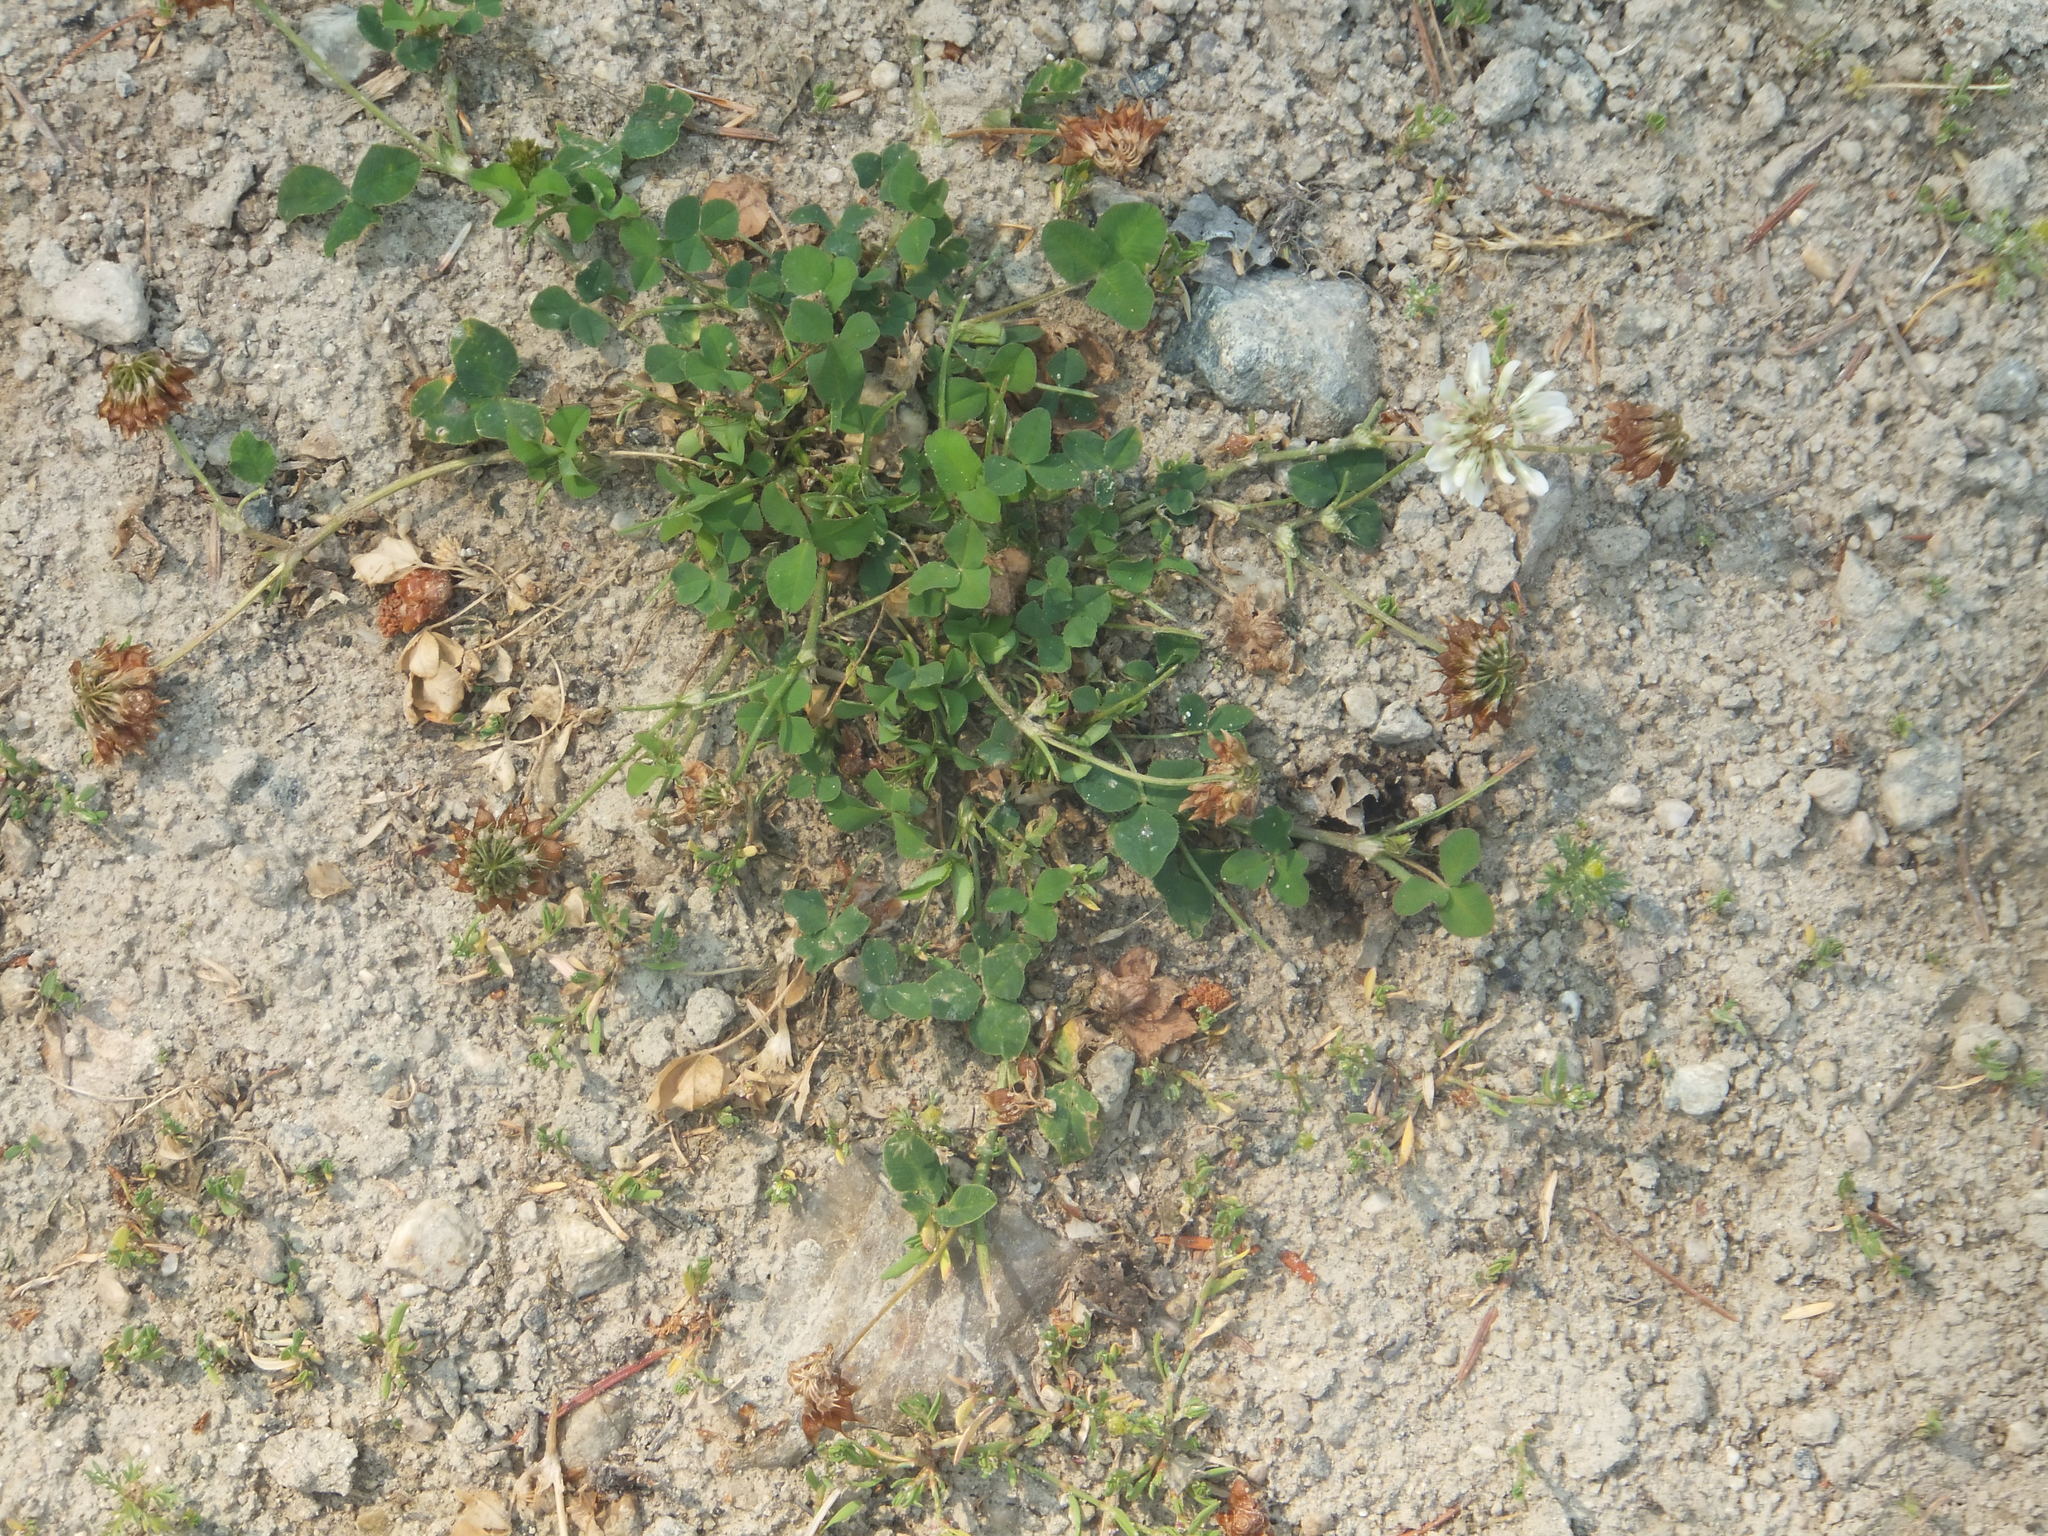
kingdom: Plantae
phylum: Tracheophyta
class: Magnoliopsida
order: Fabales
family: Fabaceae
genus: Trifolium
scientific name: Trifolium repens
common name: White clover
